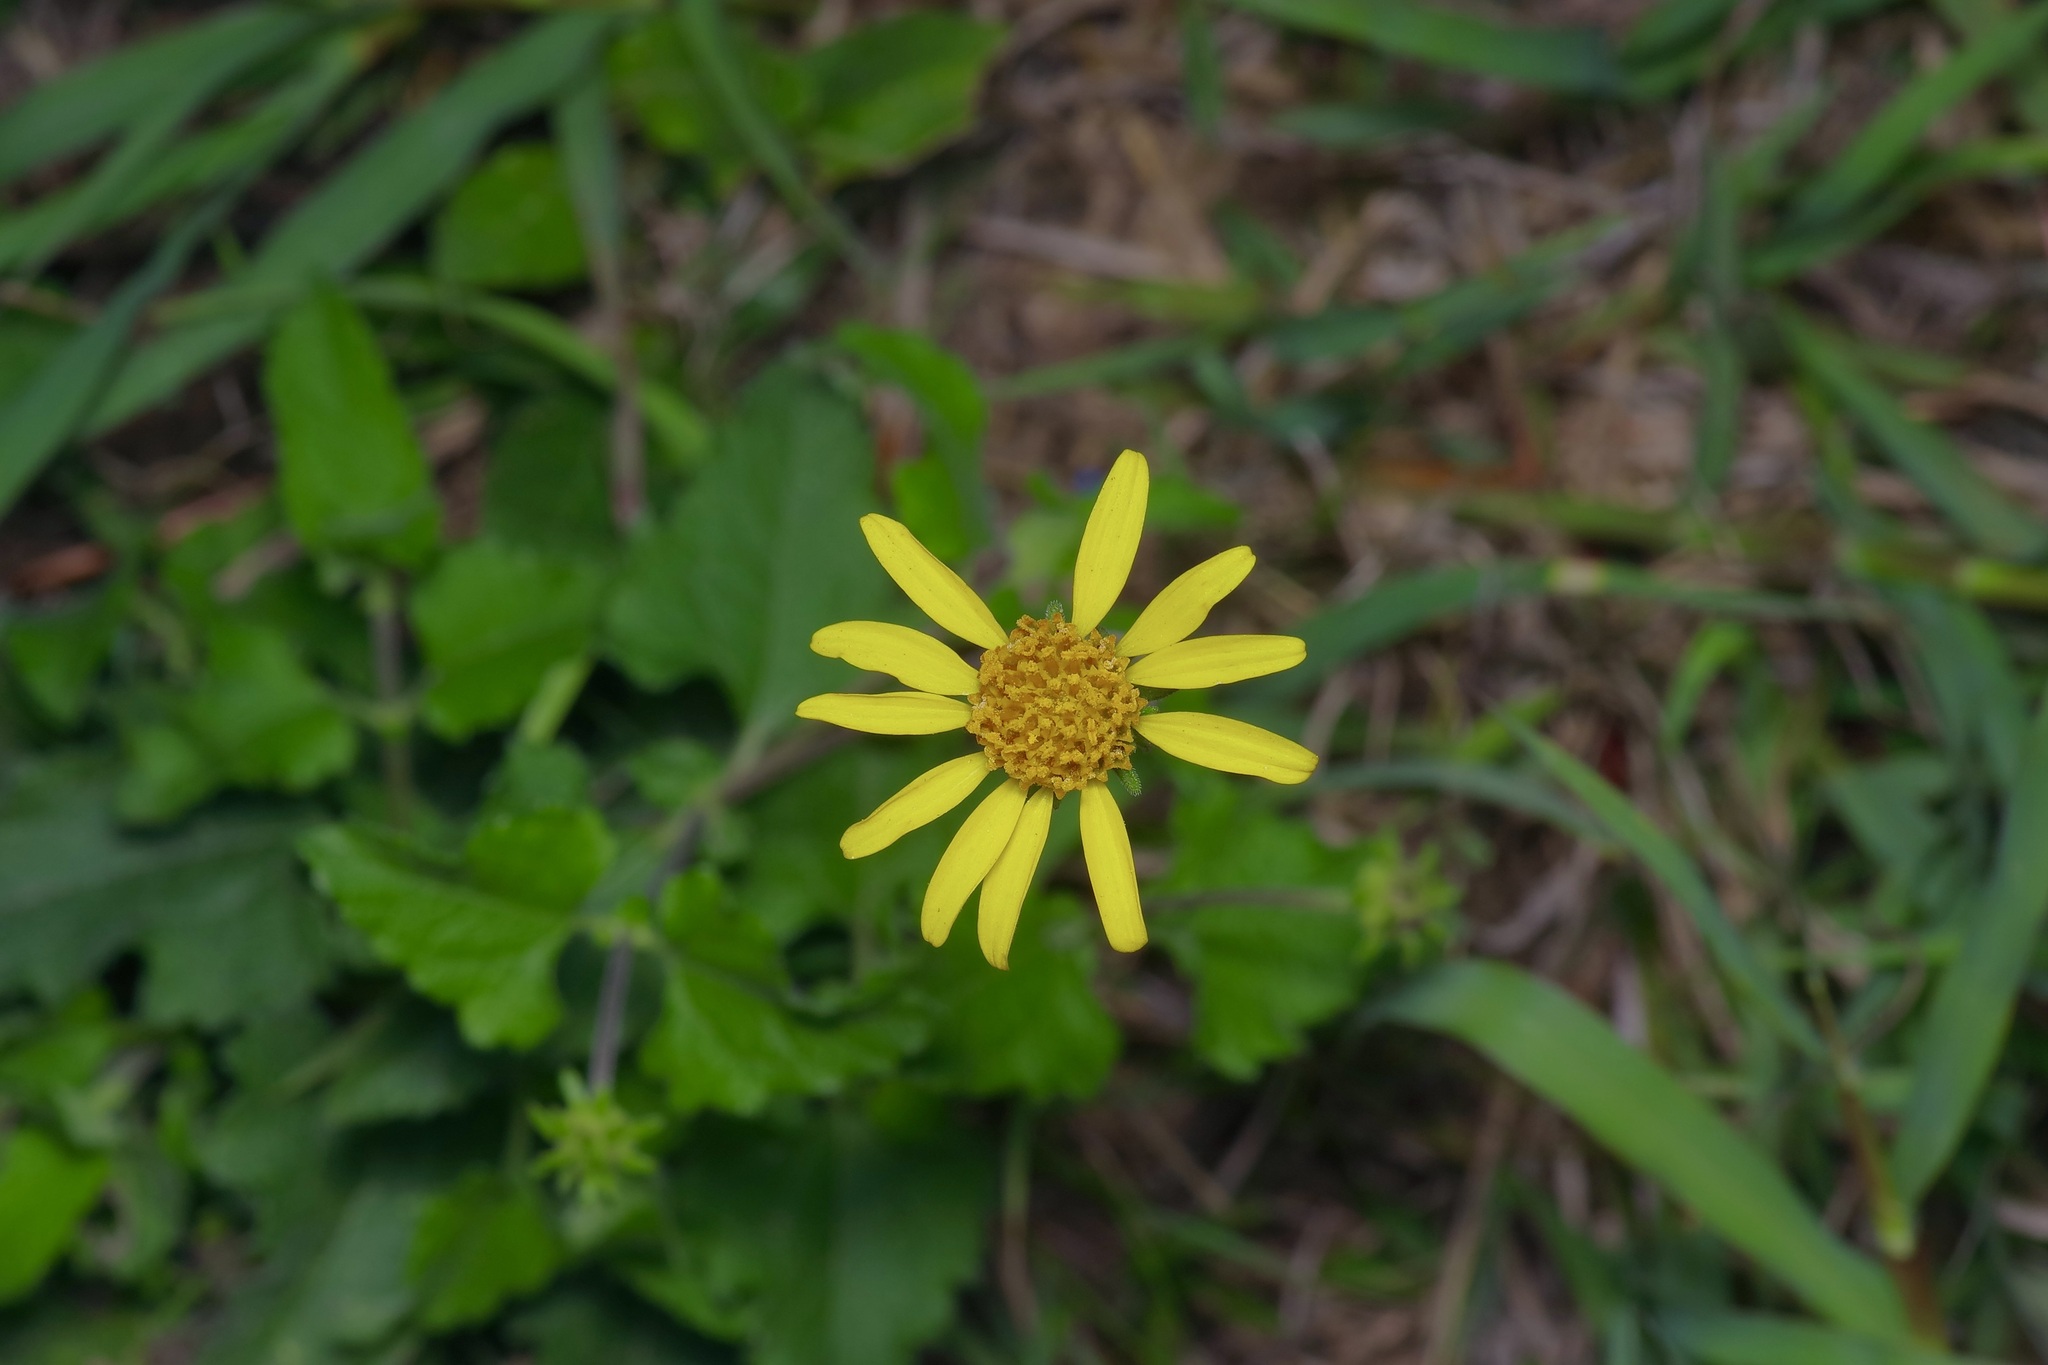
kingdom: Plantae
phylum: Tracheophyta
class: Magnoliopsida
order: Asterales
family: Asteraceae
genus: Simsia
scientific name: Simsia calva
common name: Awnless bush-sunflower
